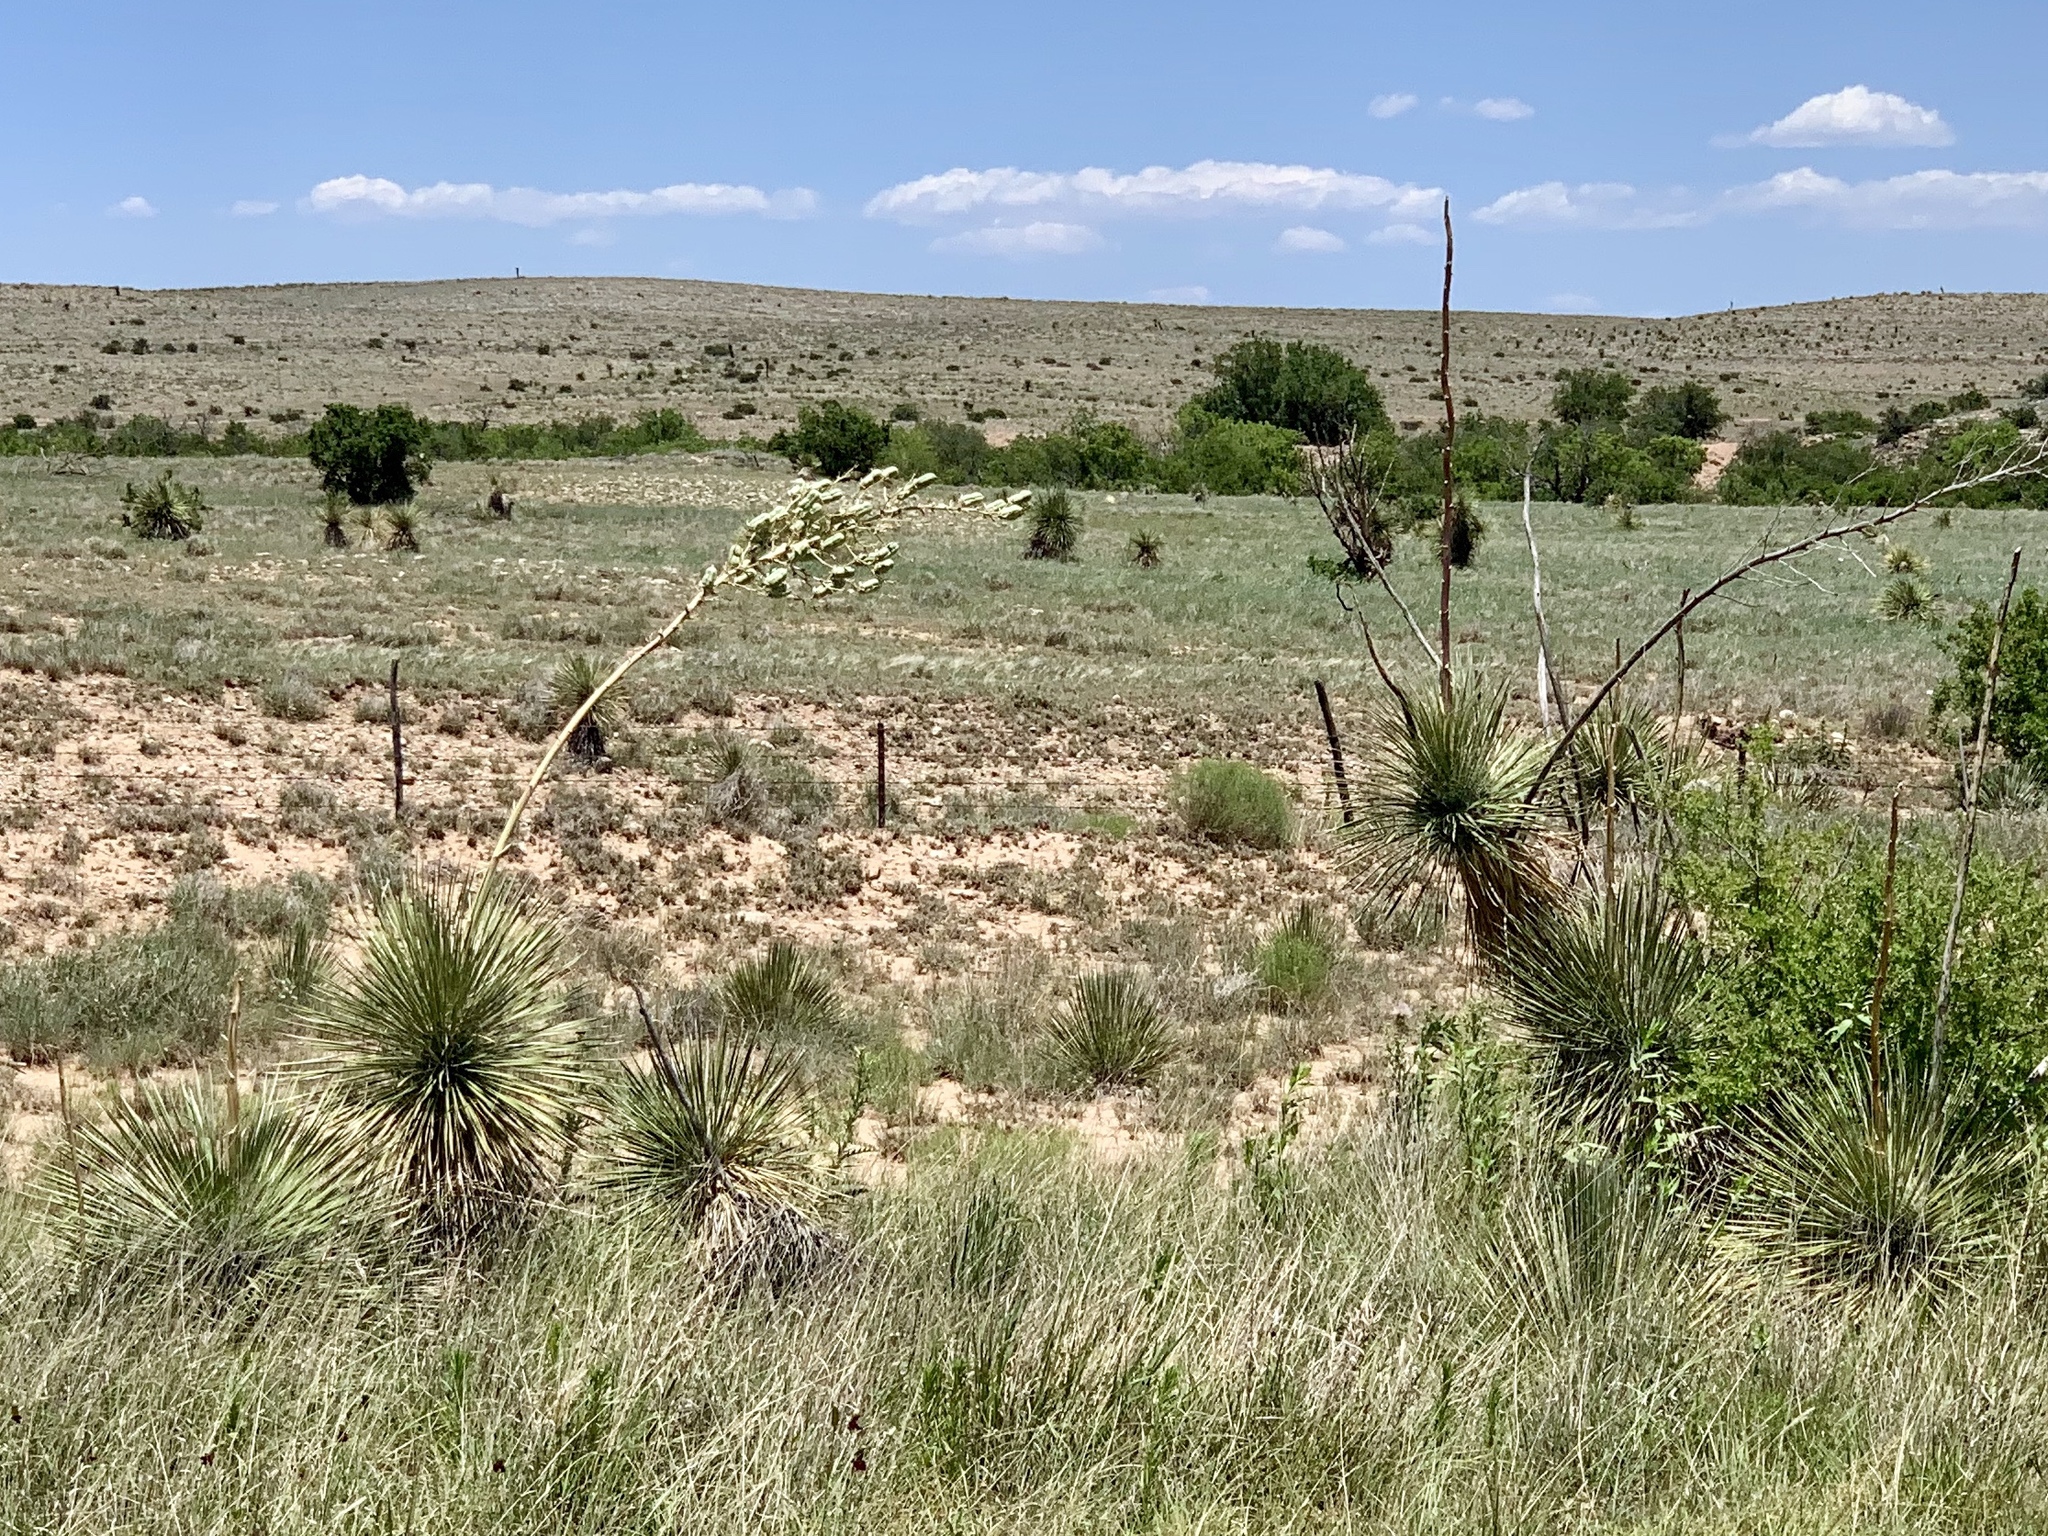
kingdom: Plantae
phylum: Tracheophyta
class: Liliopsida
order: Asparagales
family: Asparagaceae
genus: Yucca
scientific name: Yucca elata
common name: Palmella
